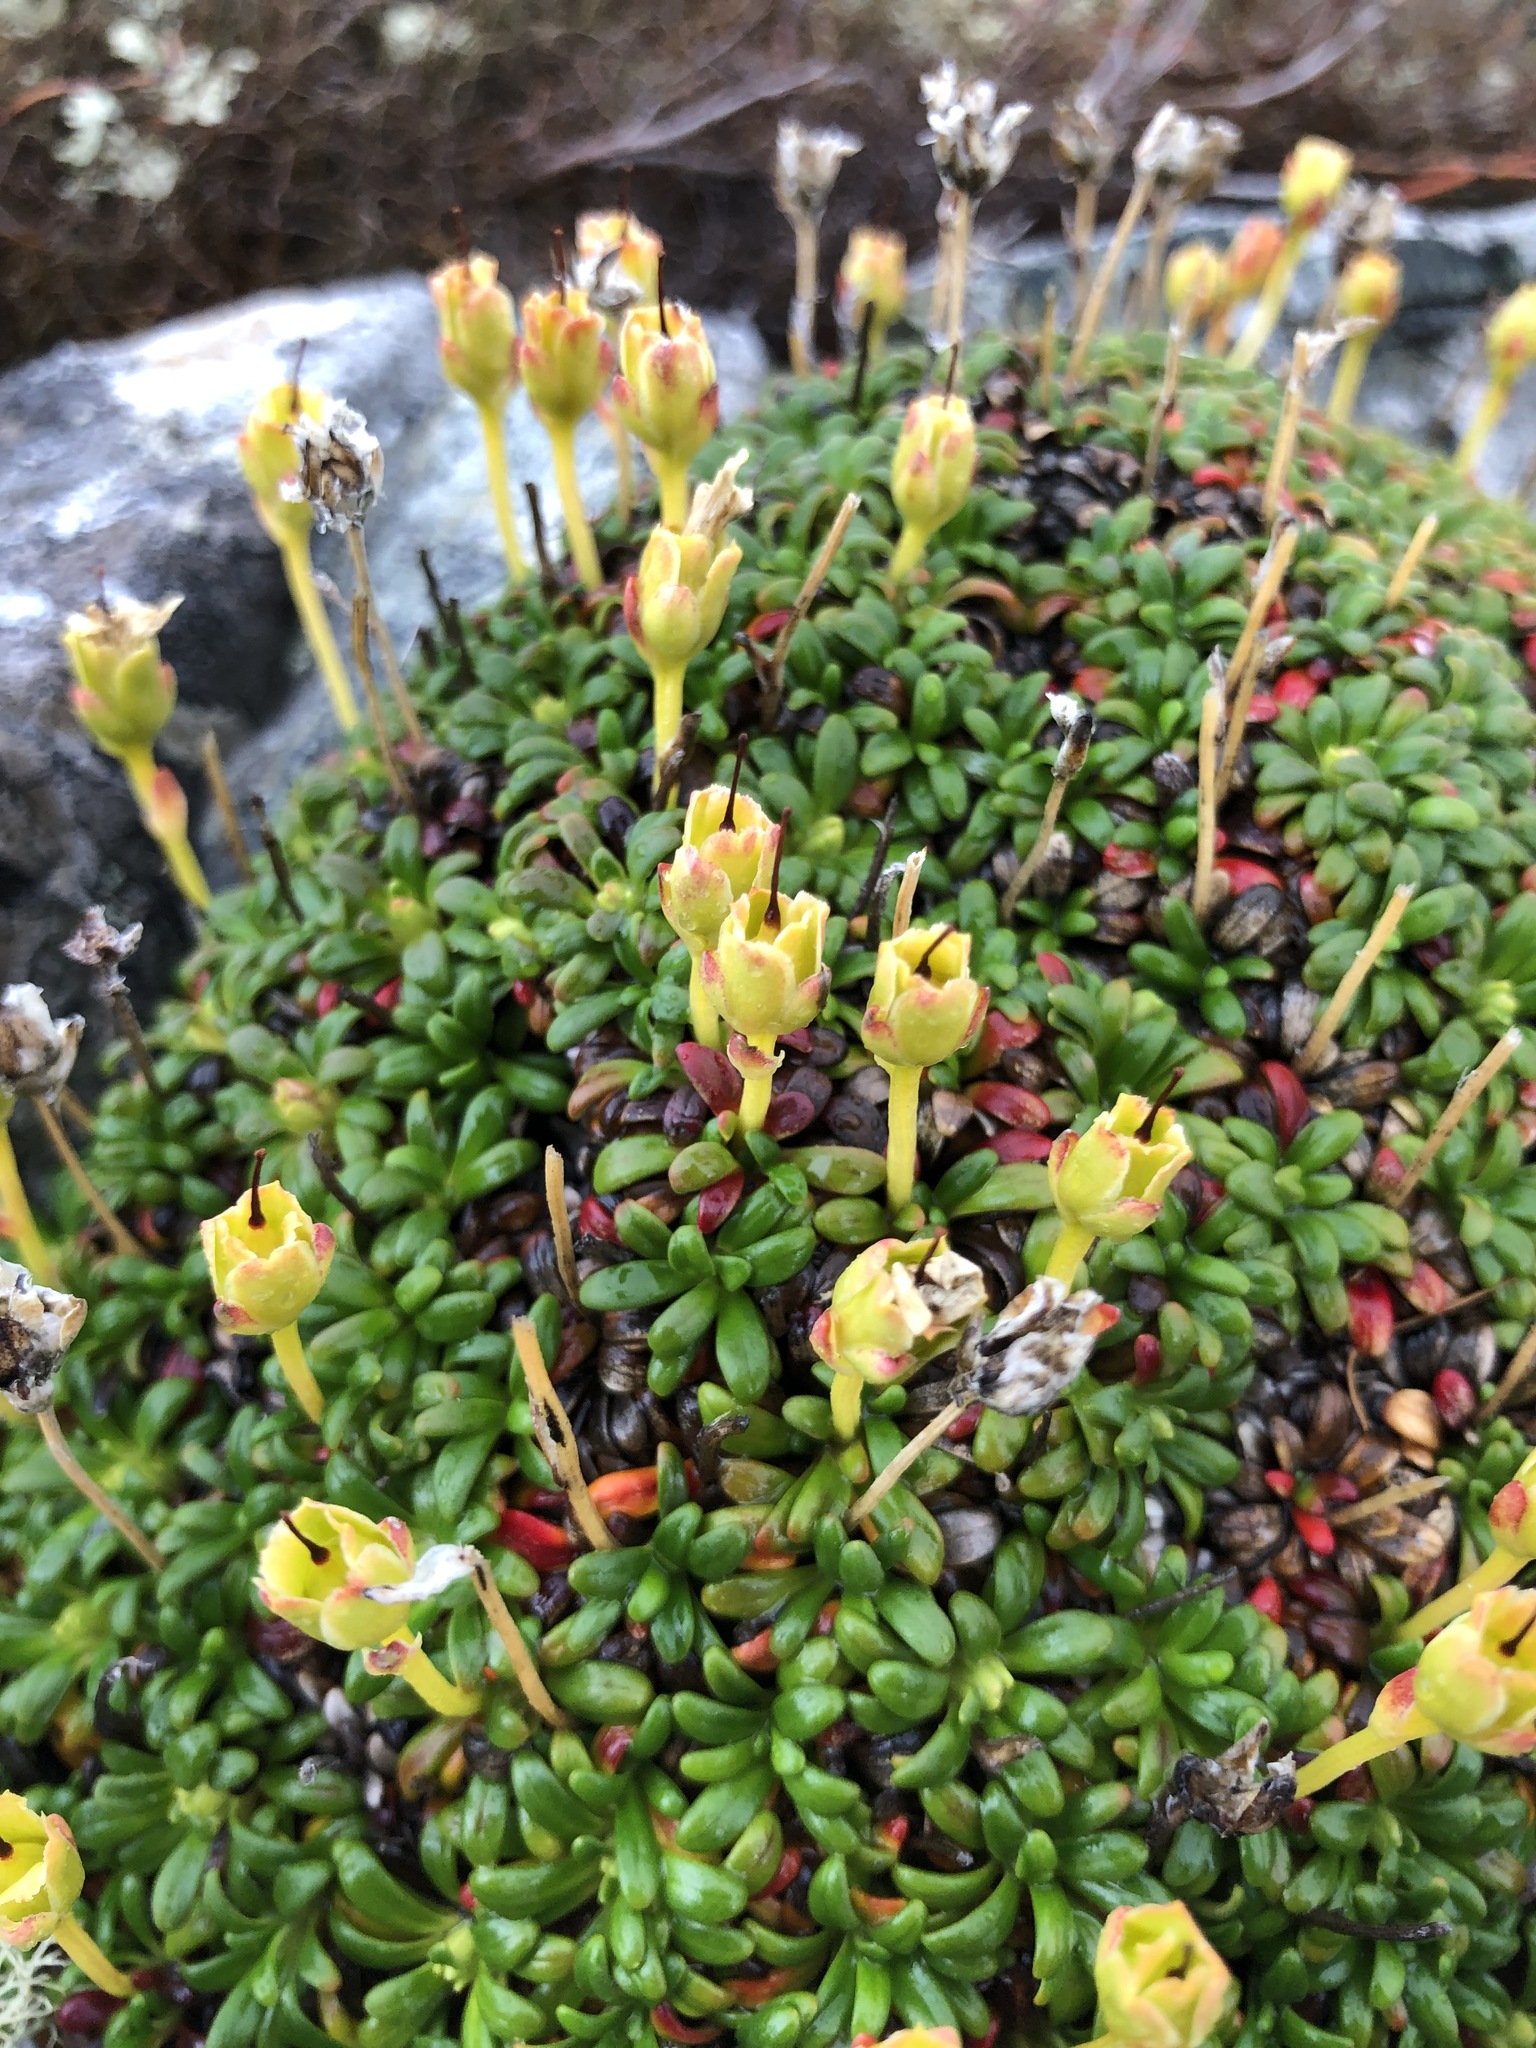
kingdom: Plantae
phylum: Tracheophyta
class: Magnoliopsida
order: Ericales
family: Diapensiaceae
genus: Diapensia
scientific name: Diapensia lapponica
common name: Diapensia
